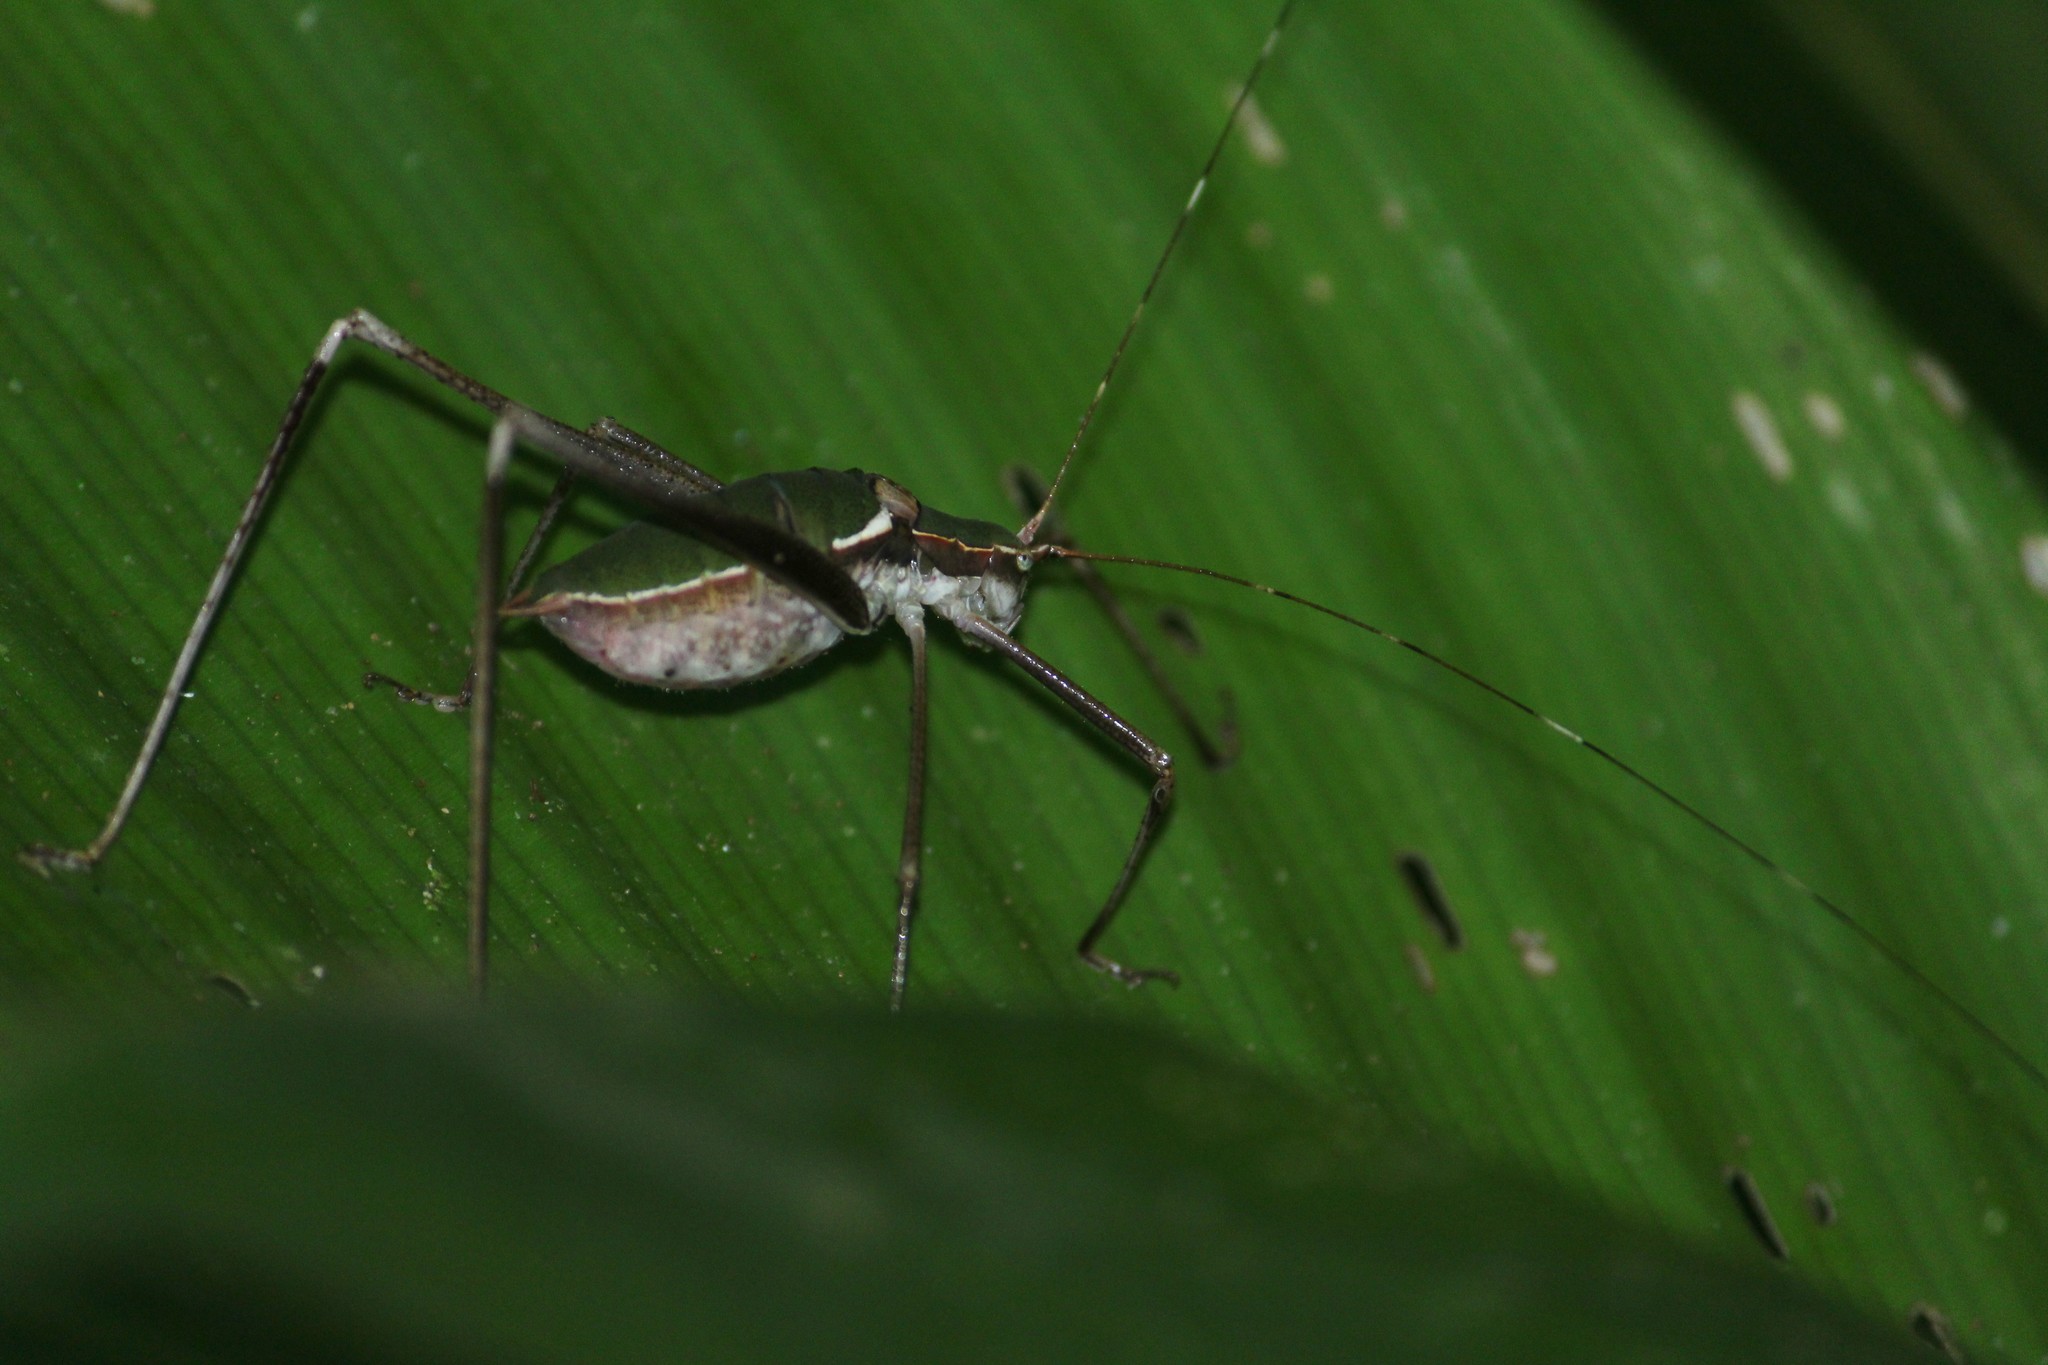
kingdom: Animalia
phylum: Arthropoda
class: Insecta
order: Orthoptera
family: Tettigoniidae
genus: Xenicola
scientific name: Xenicola brauni
